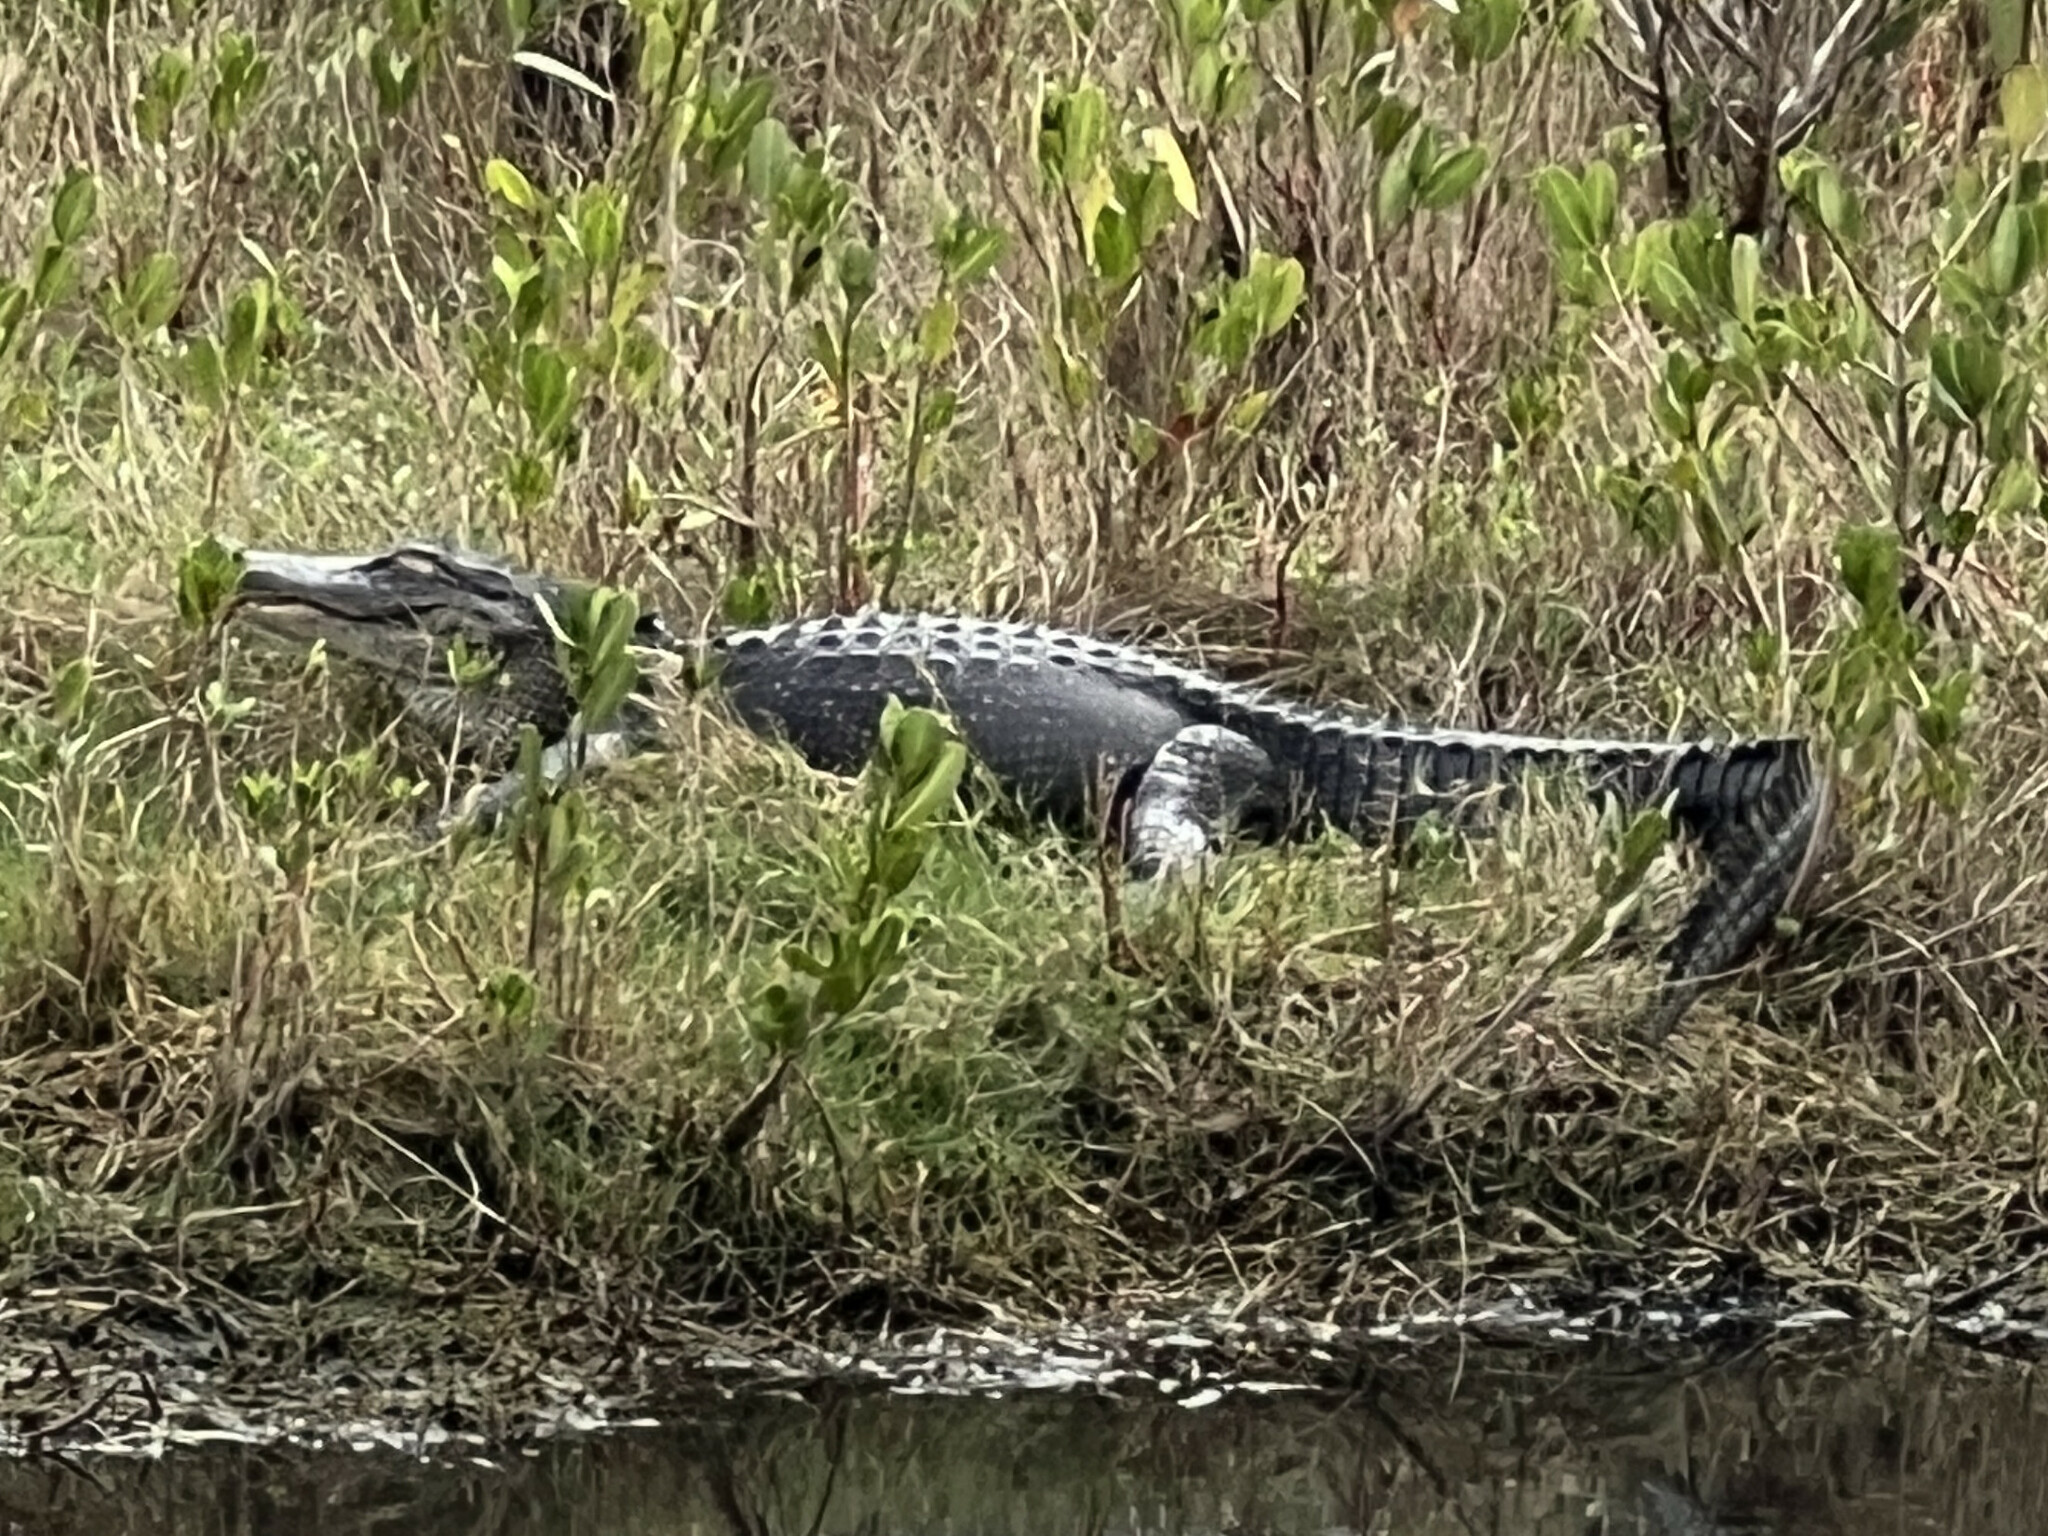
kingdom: Animalia
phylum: Chordata
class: Crocodylia
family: Alligatoridae
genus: Alligator
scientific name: Alligator mississippiensis
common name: American alligator
